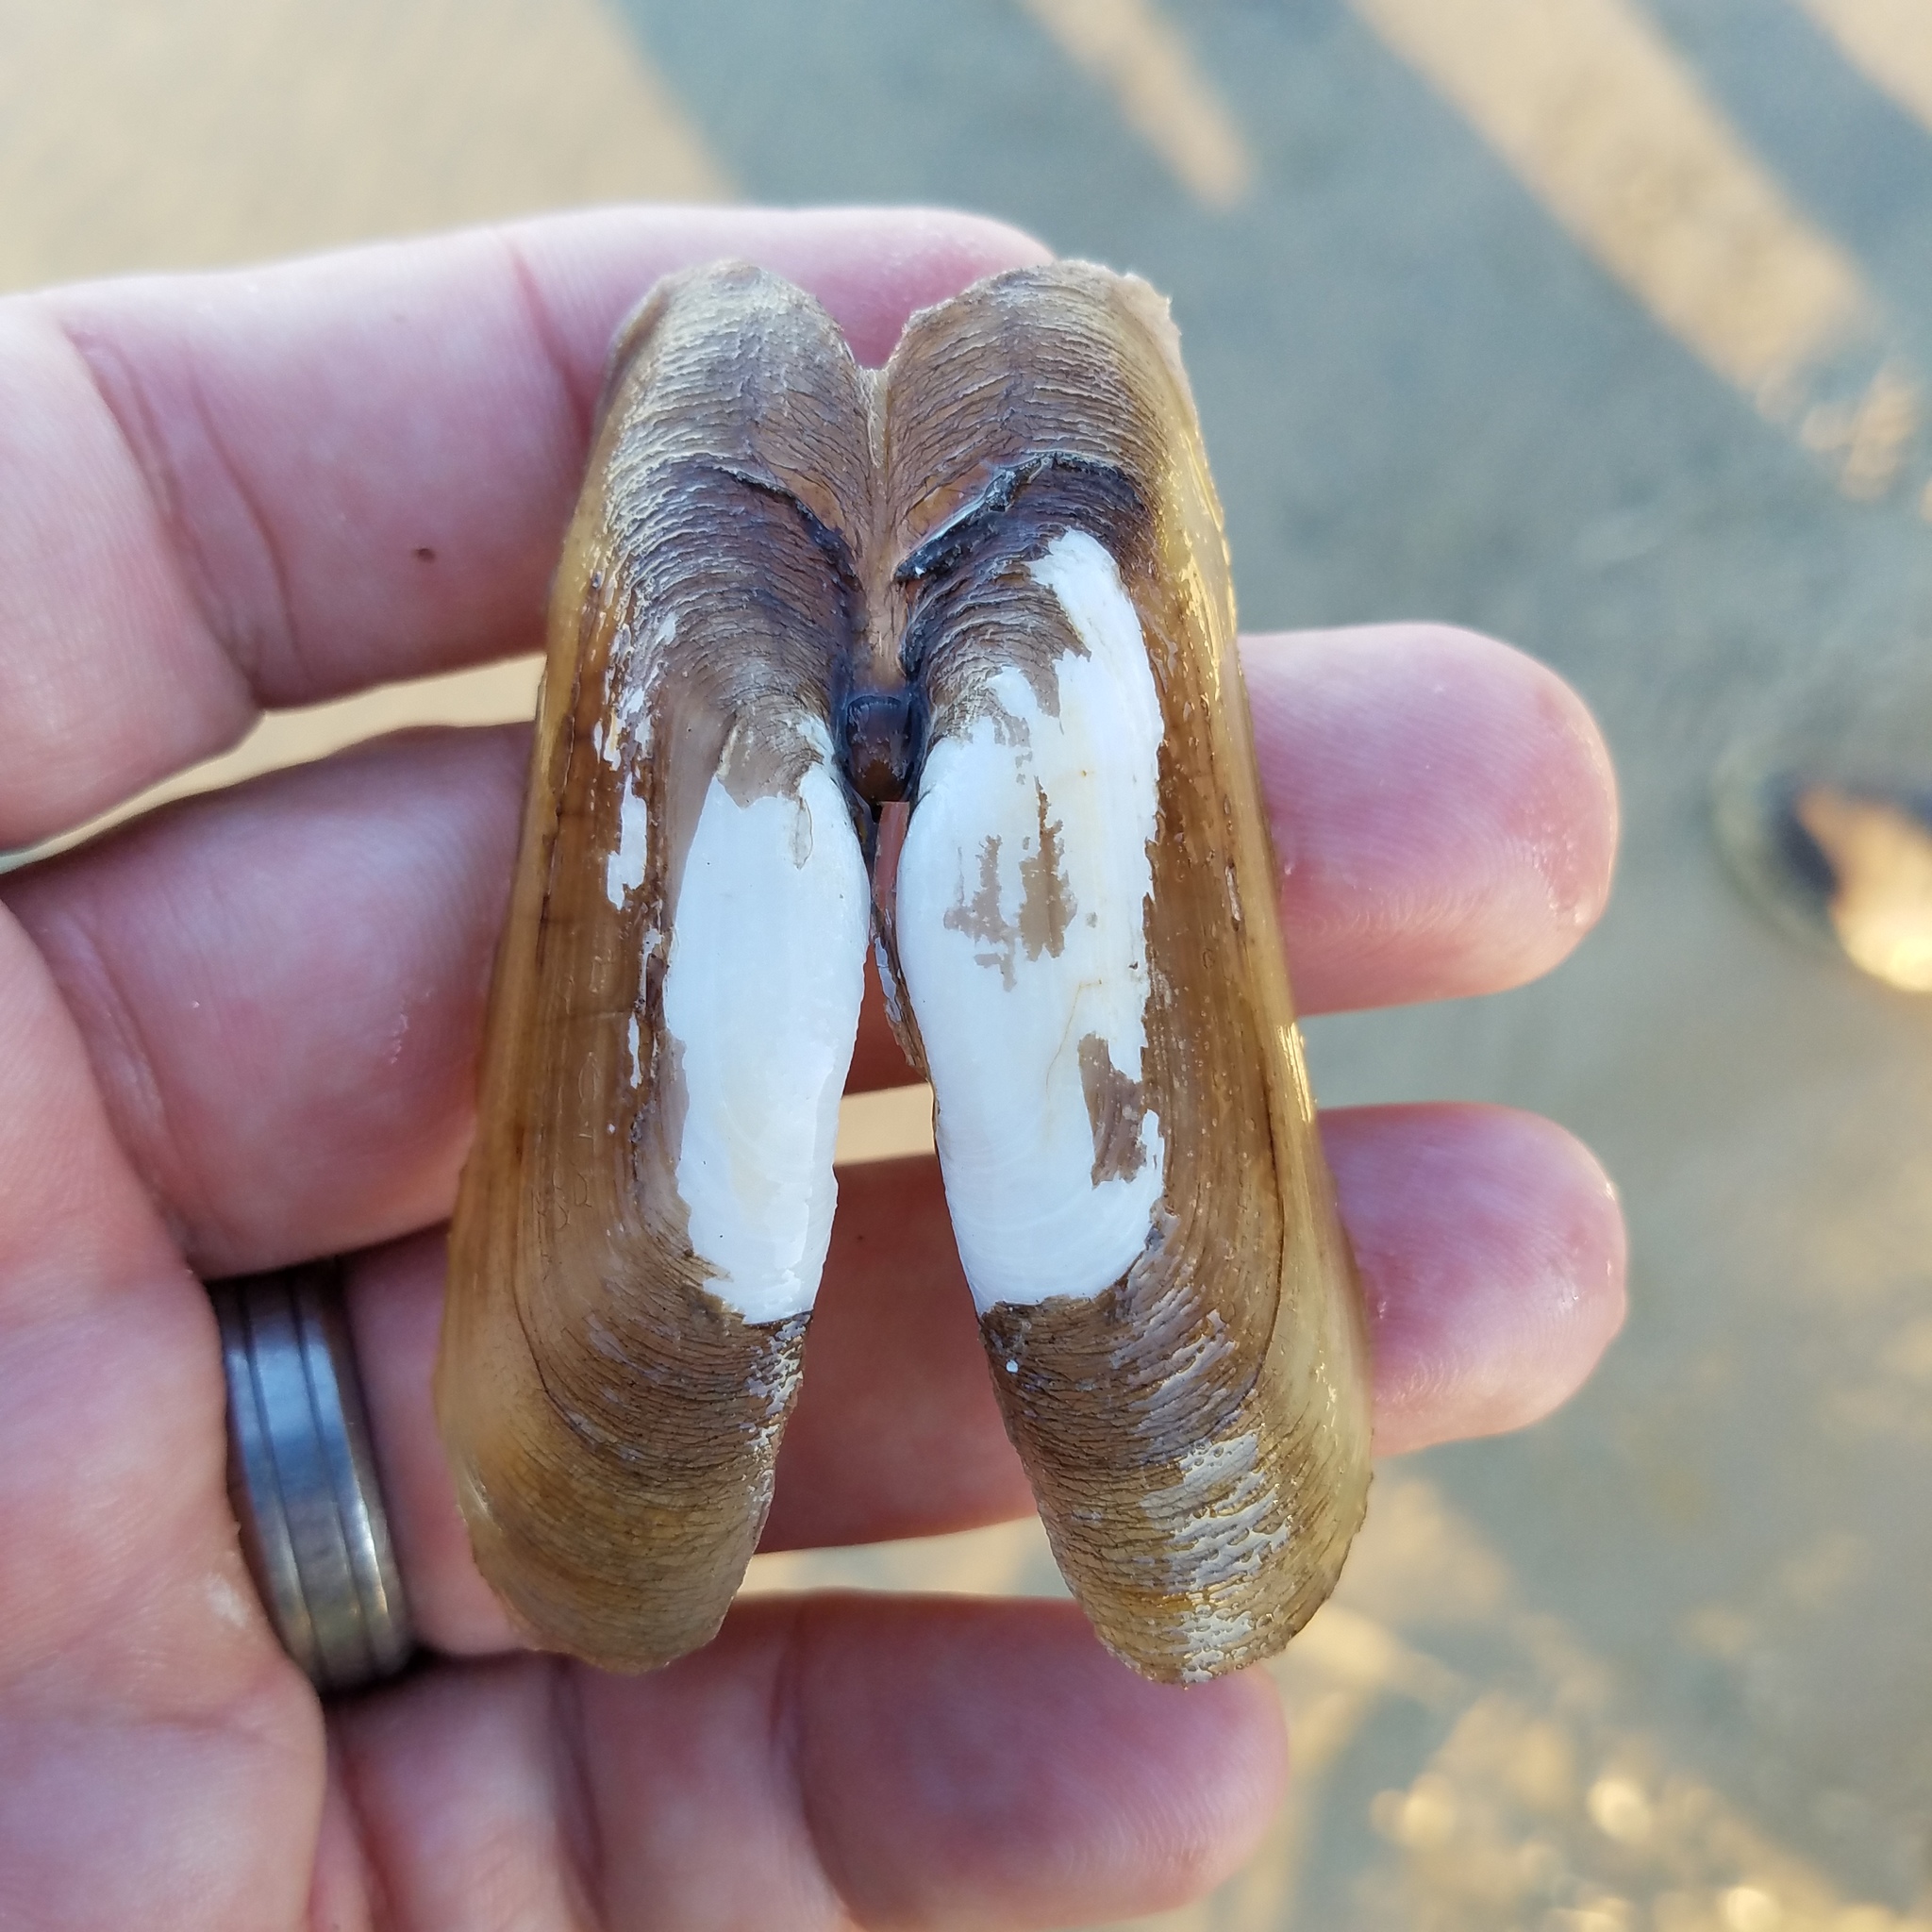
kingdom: Animalia
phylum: Mollusca
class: Bivalvia
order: Cardiida
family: Solecurtidae
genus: Tagelus
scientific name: Tagelus plebeius
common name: Stout tagelus
